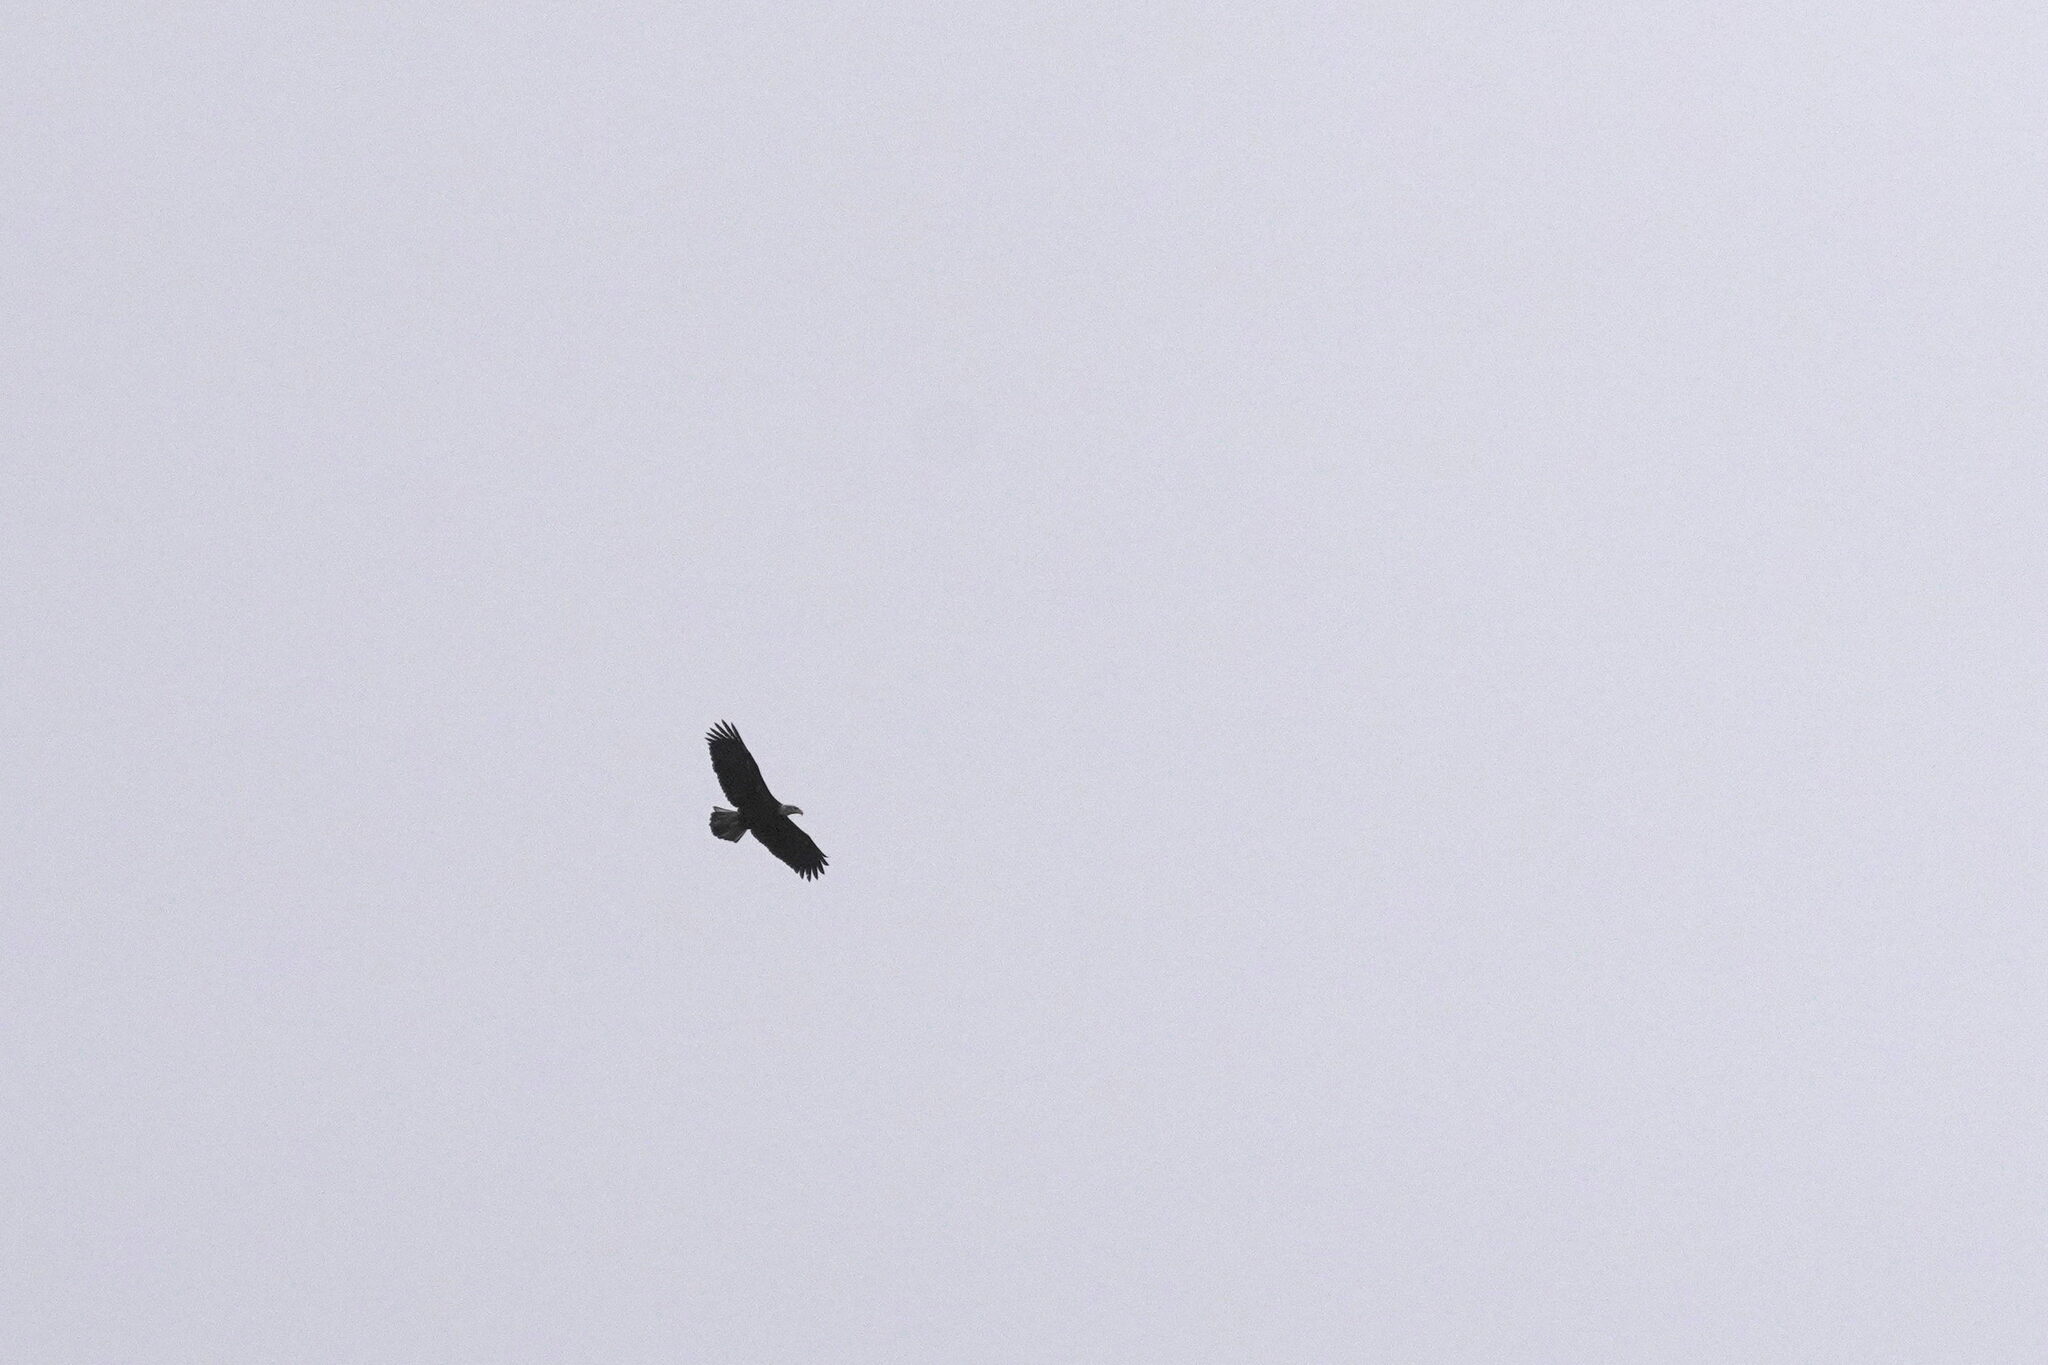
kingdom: Animalia
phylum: Chordata
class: Aves
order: Accipitriformes
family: Accipitridae
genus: Haliaeetus
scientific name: Haliaeetus leucocephalus
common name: Bald eagle
